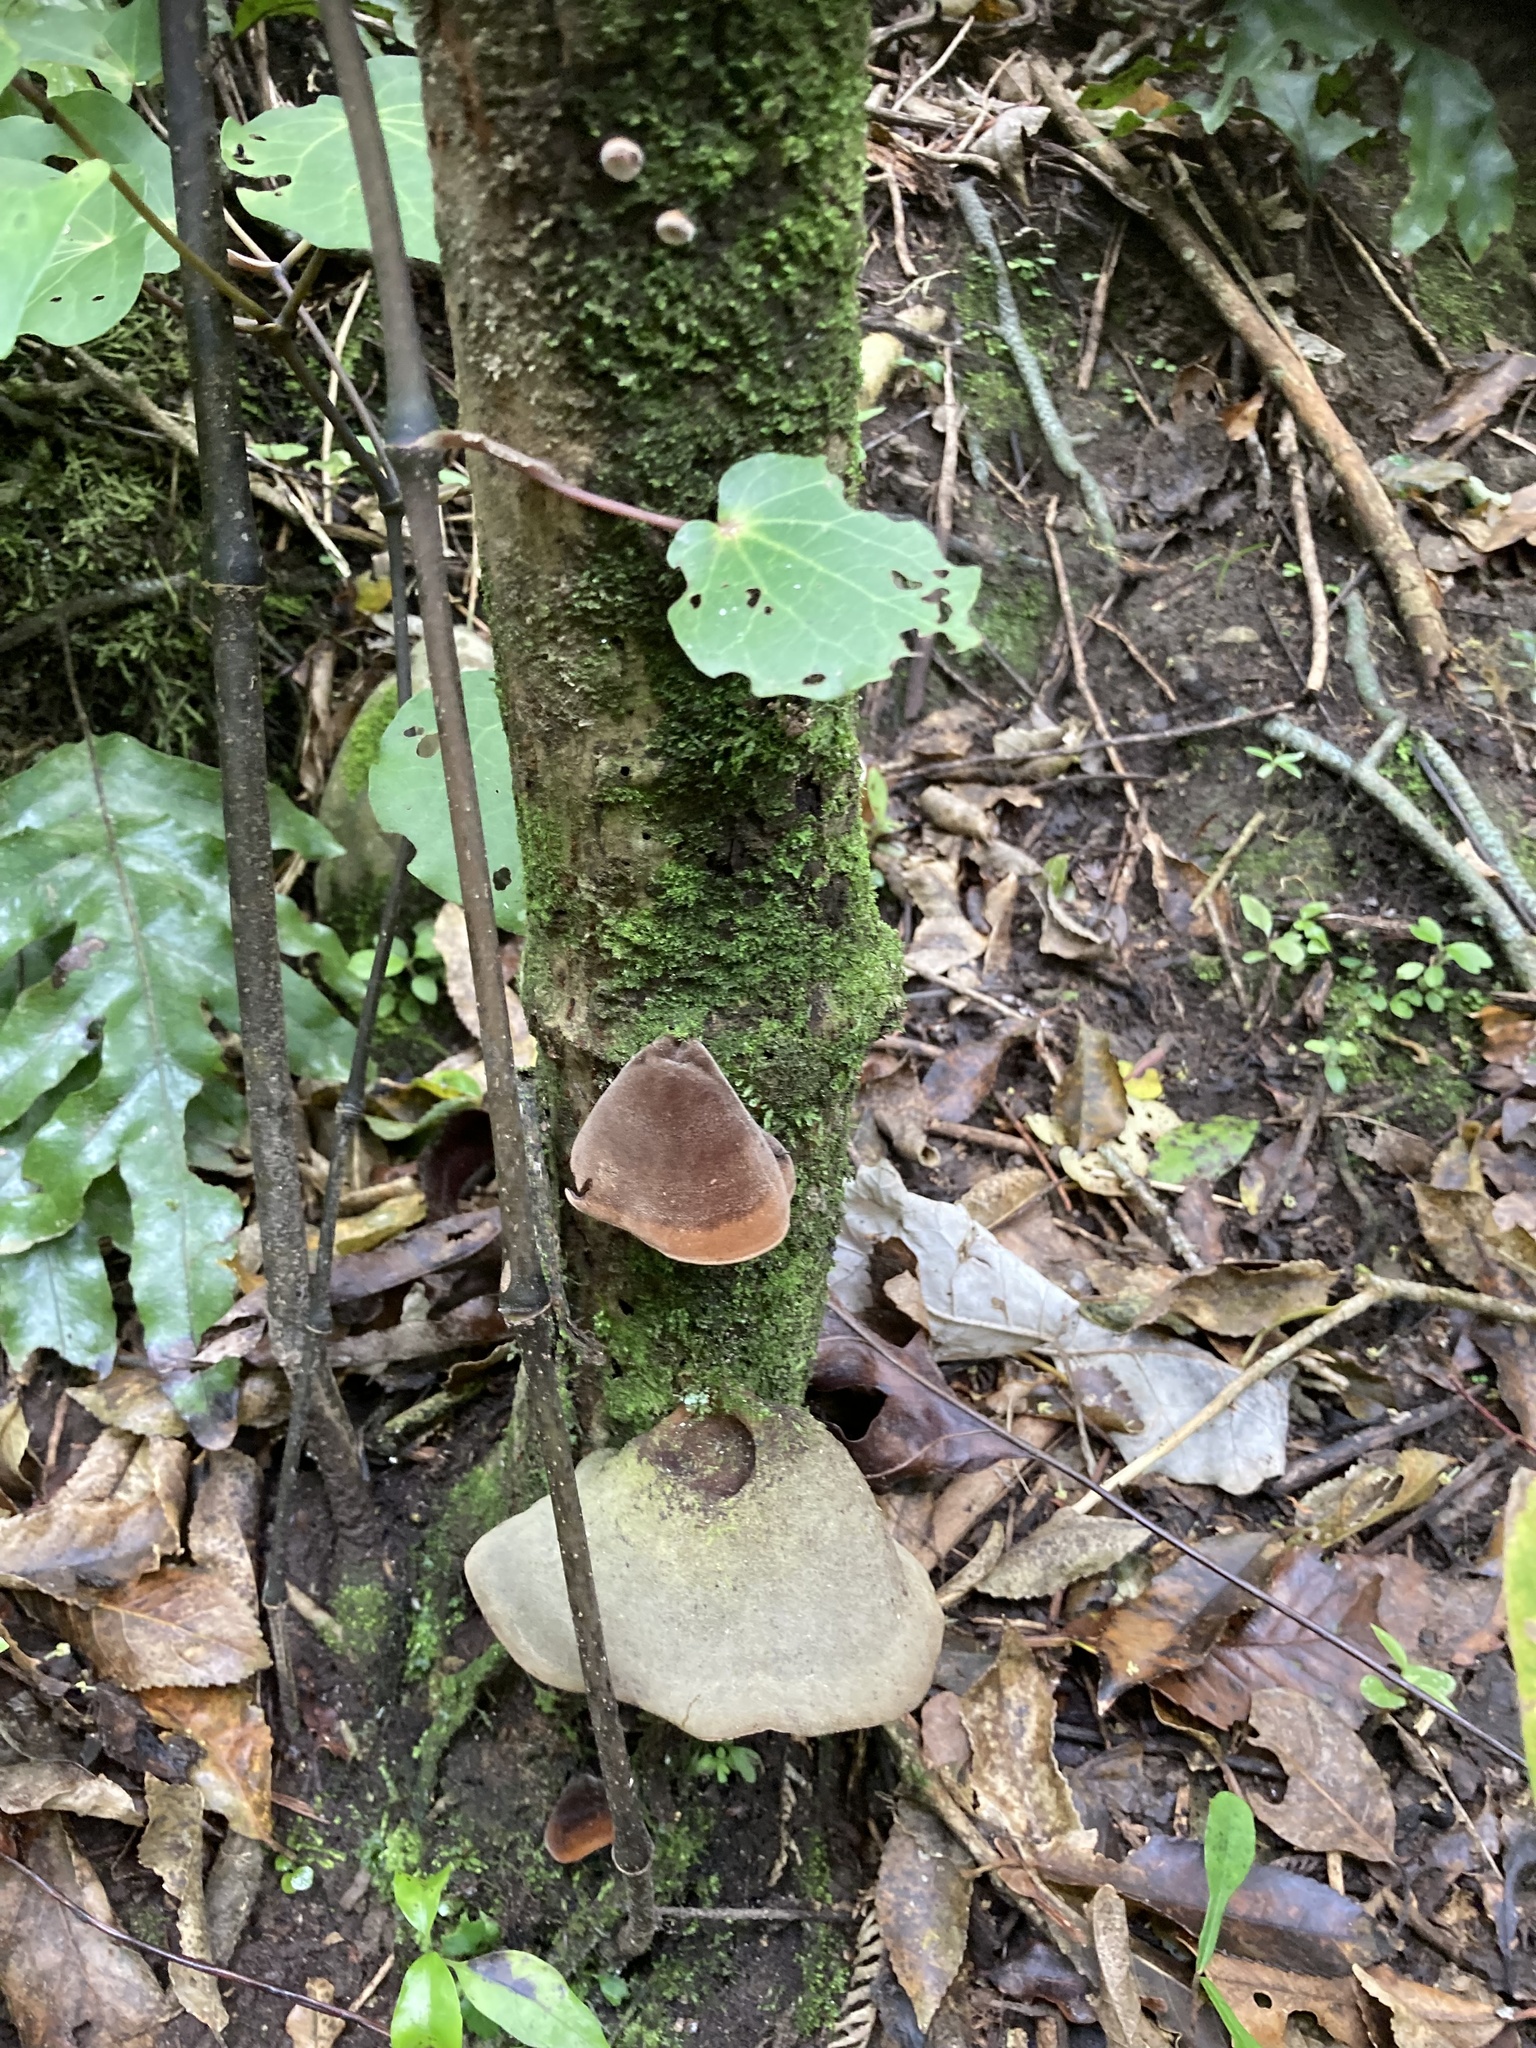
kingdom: Fungi
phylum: Basidiomycota
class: Agaricomycetes
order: Auriculariales
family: Auriculariaceae
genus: Auricularia
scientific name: Auricularia cornea
